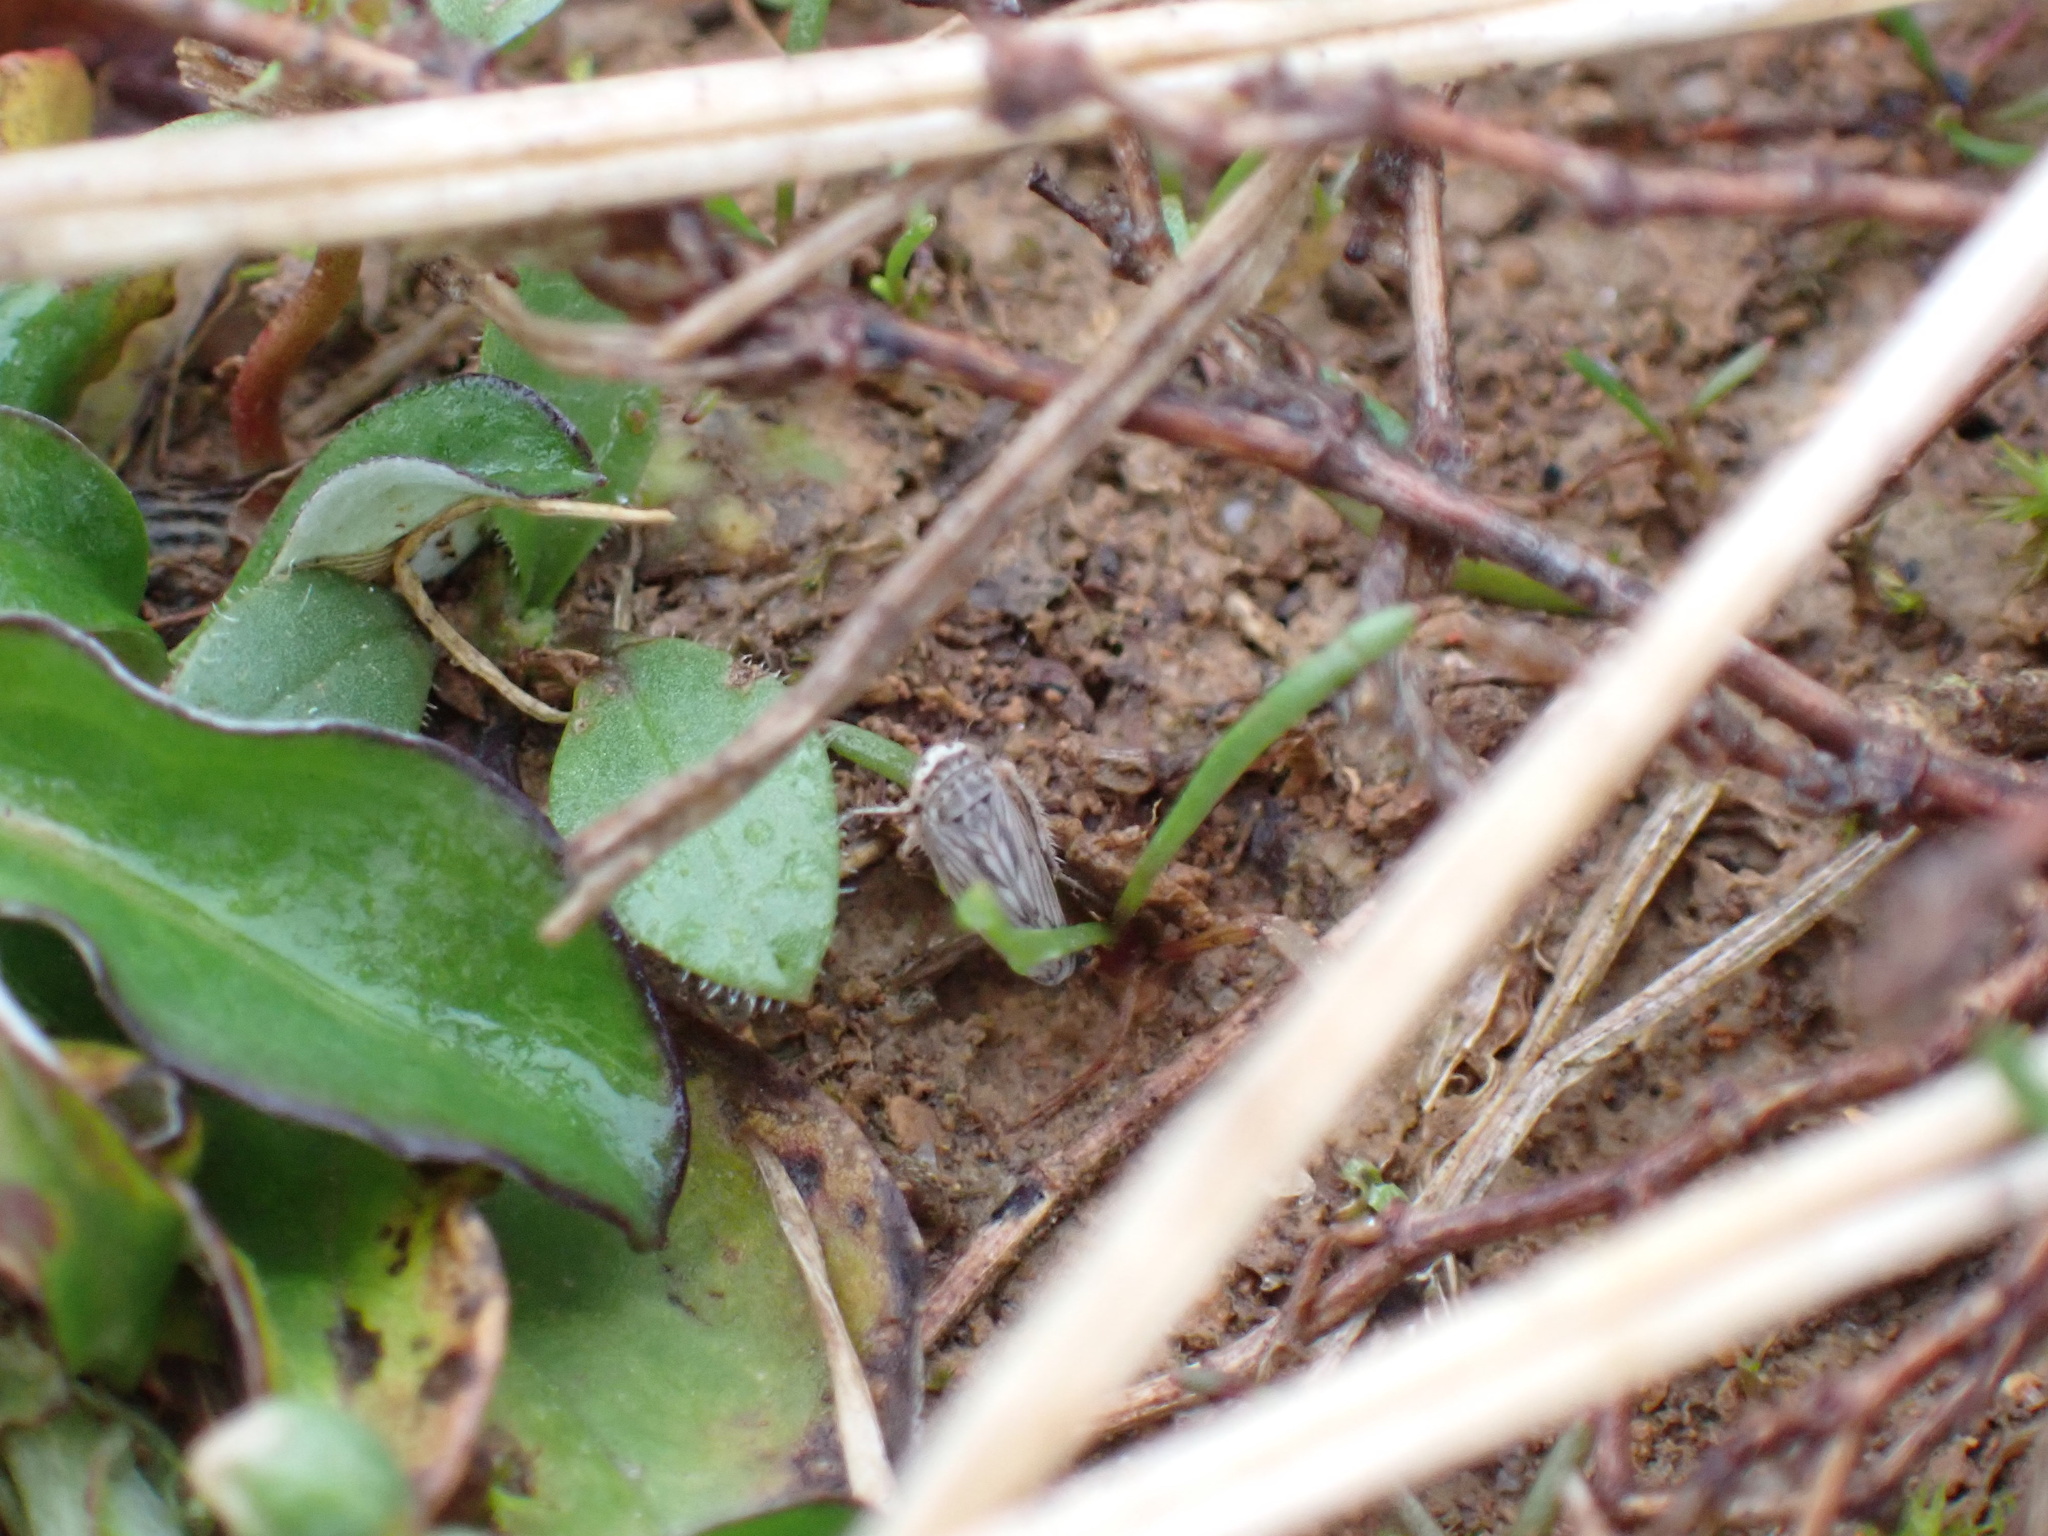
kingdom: Animalia
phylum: Arthropoda
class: Insecta
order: Hemiptera
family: Cicadellidae
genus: Exitianus
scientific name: Exitianus exitiosus
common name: Gray lawn leafhopper
